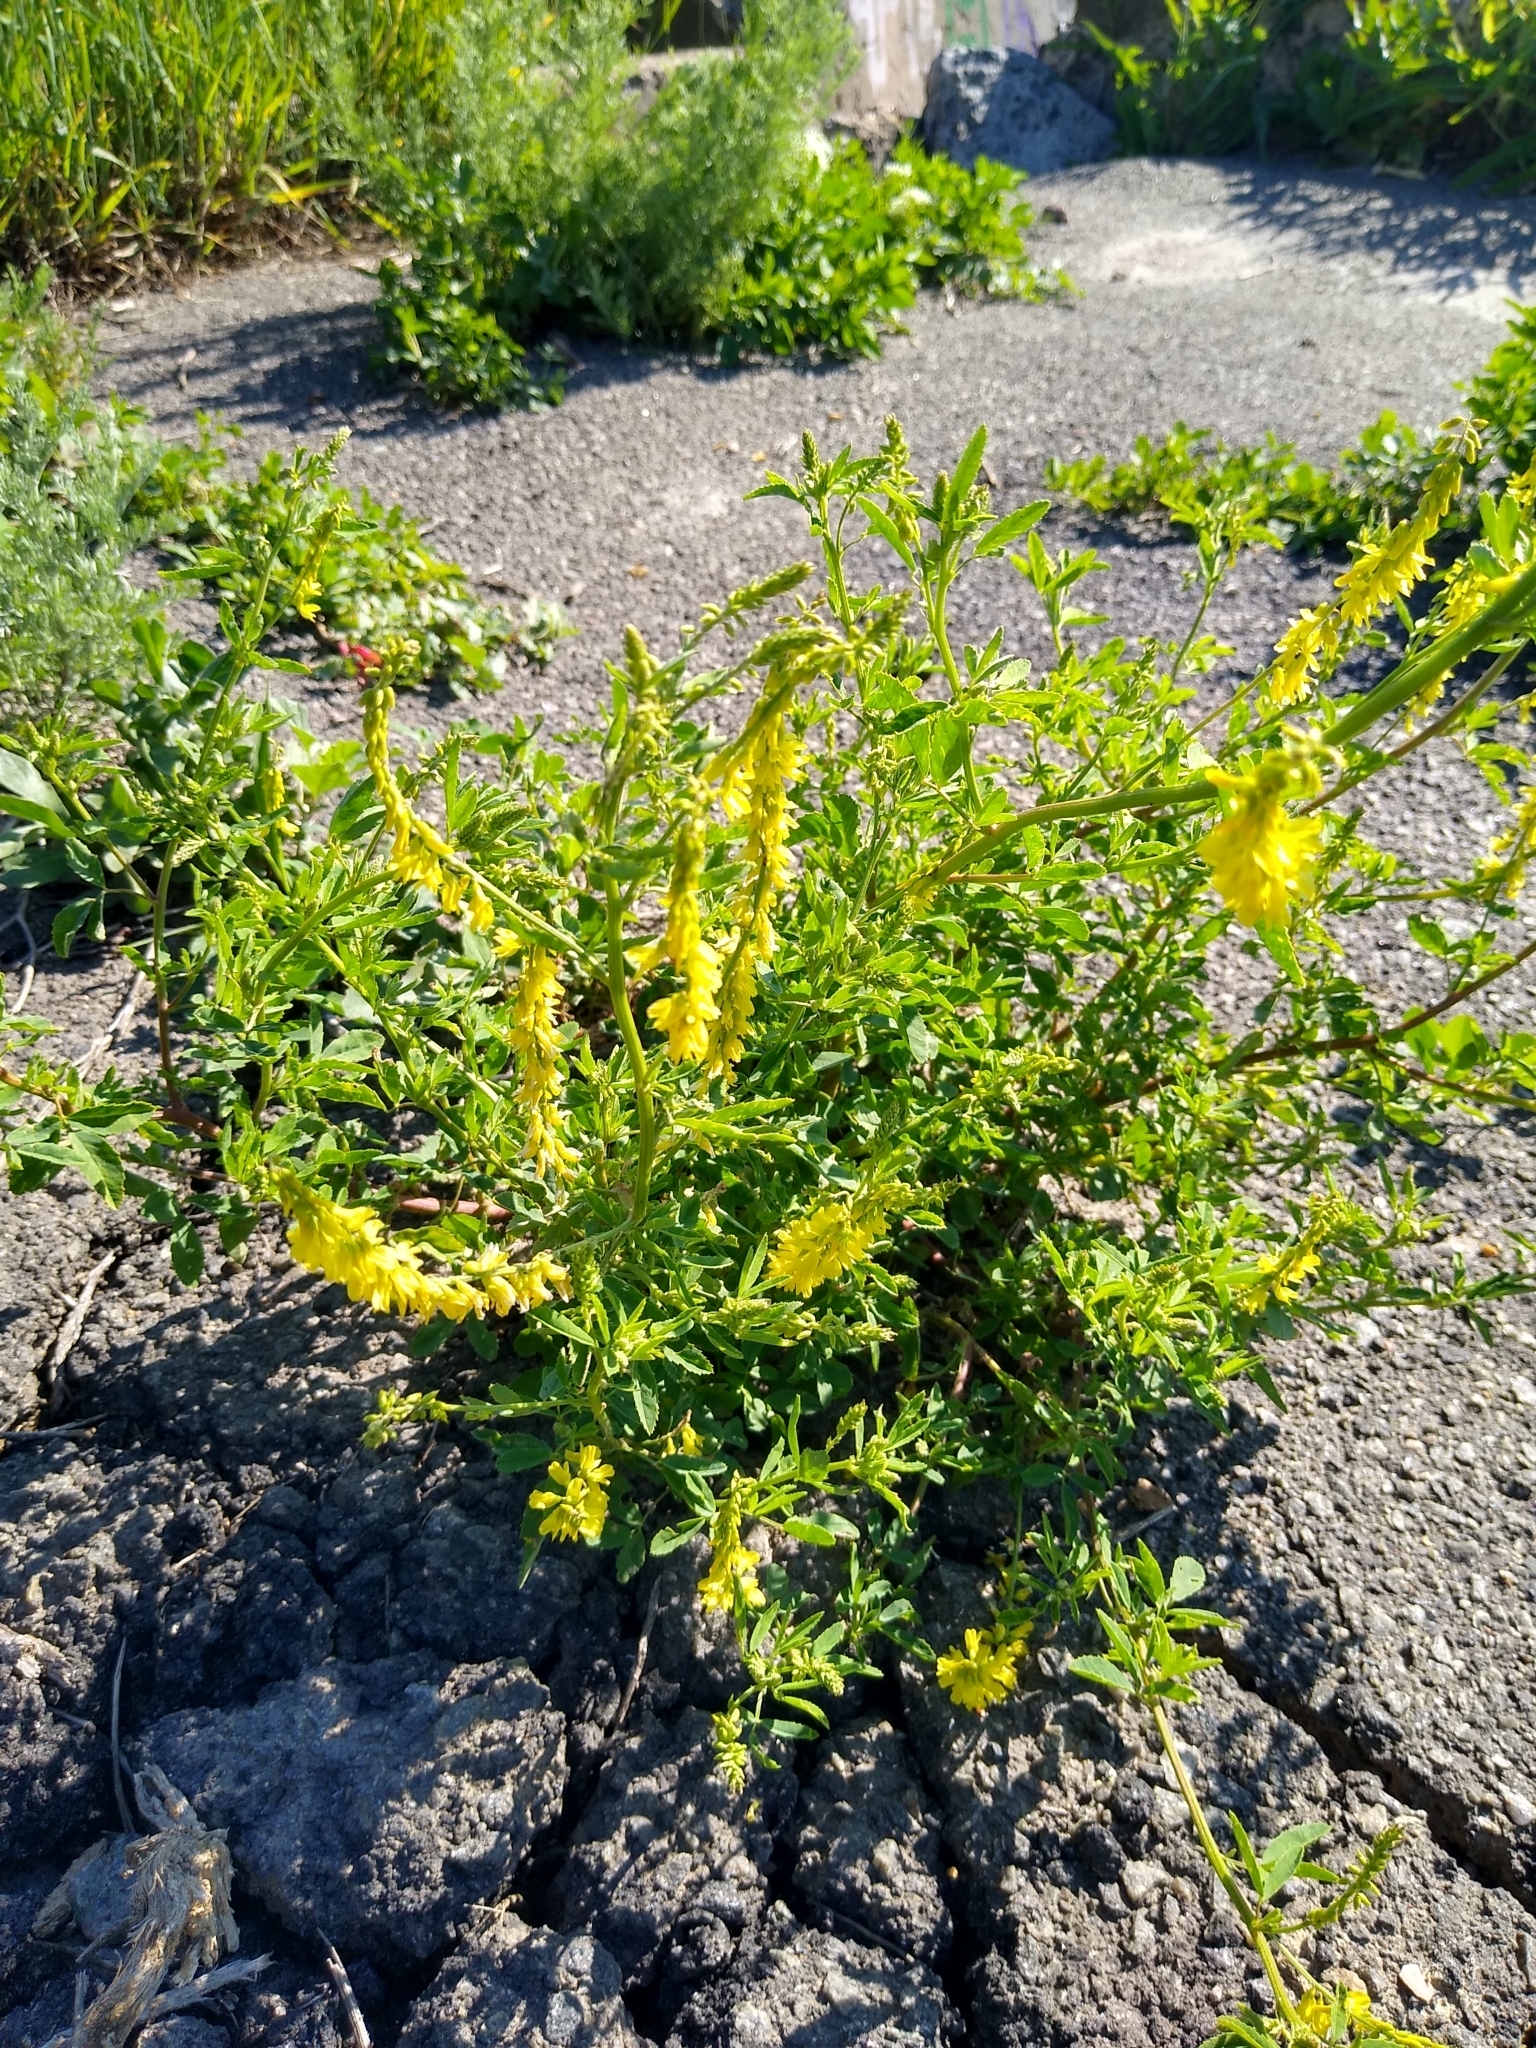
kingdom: Plantae
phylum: Tracheophyta
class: Magnoliopsida
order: Fabales
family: Fabaceae
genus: Melilotus
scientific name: Melilotus officinalis
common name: Sweetclover
